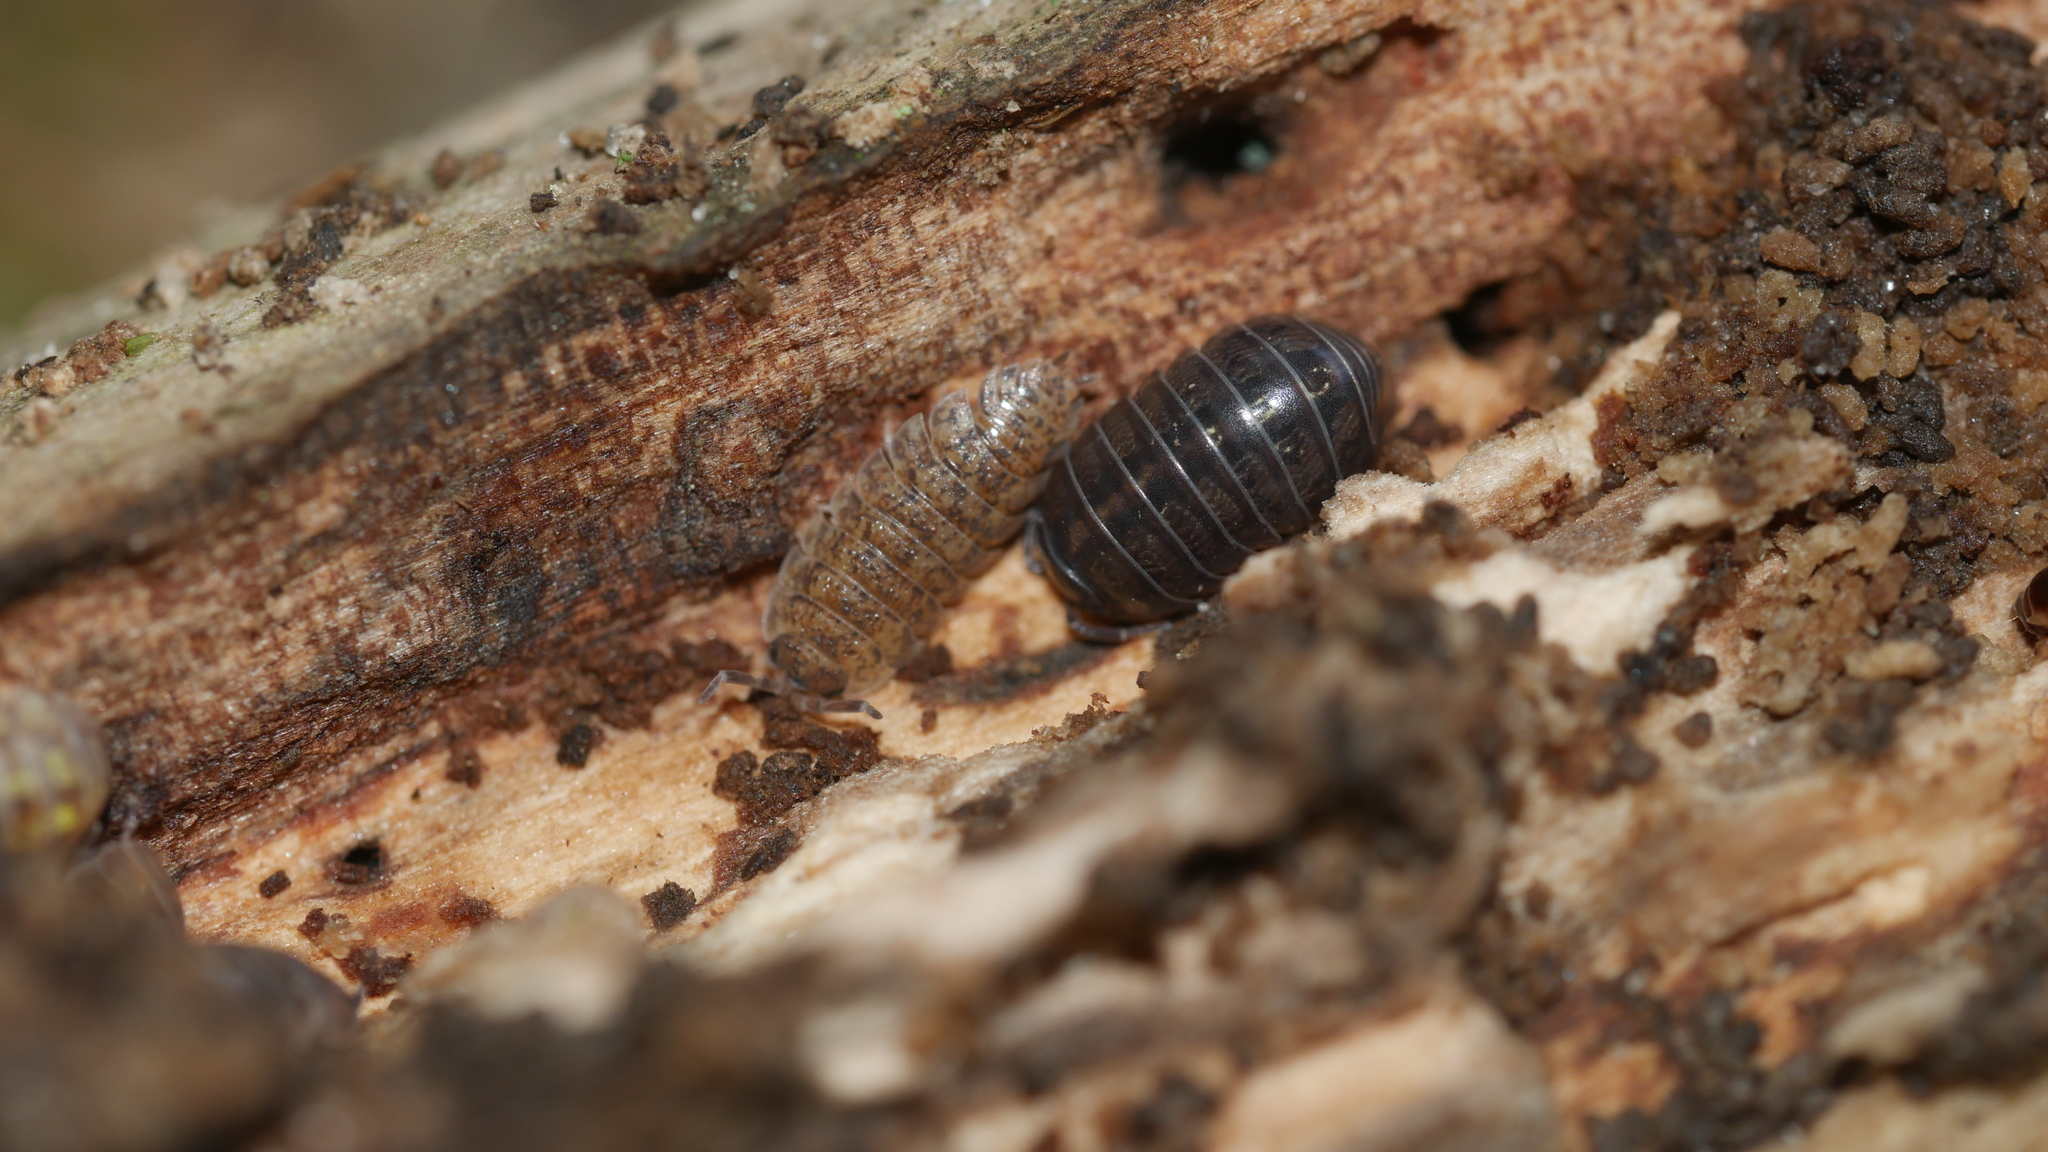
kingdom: Animalia
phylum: Arthropoda
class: Malacostraca
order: Isopoda
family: Armadillidiidae
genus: Armadillidium
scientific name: Armadillidium vulgare
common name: Common pill woodlouse
